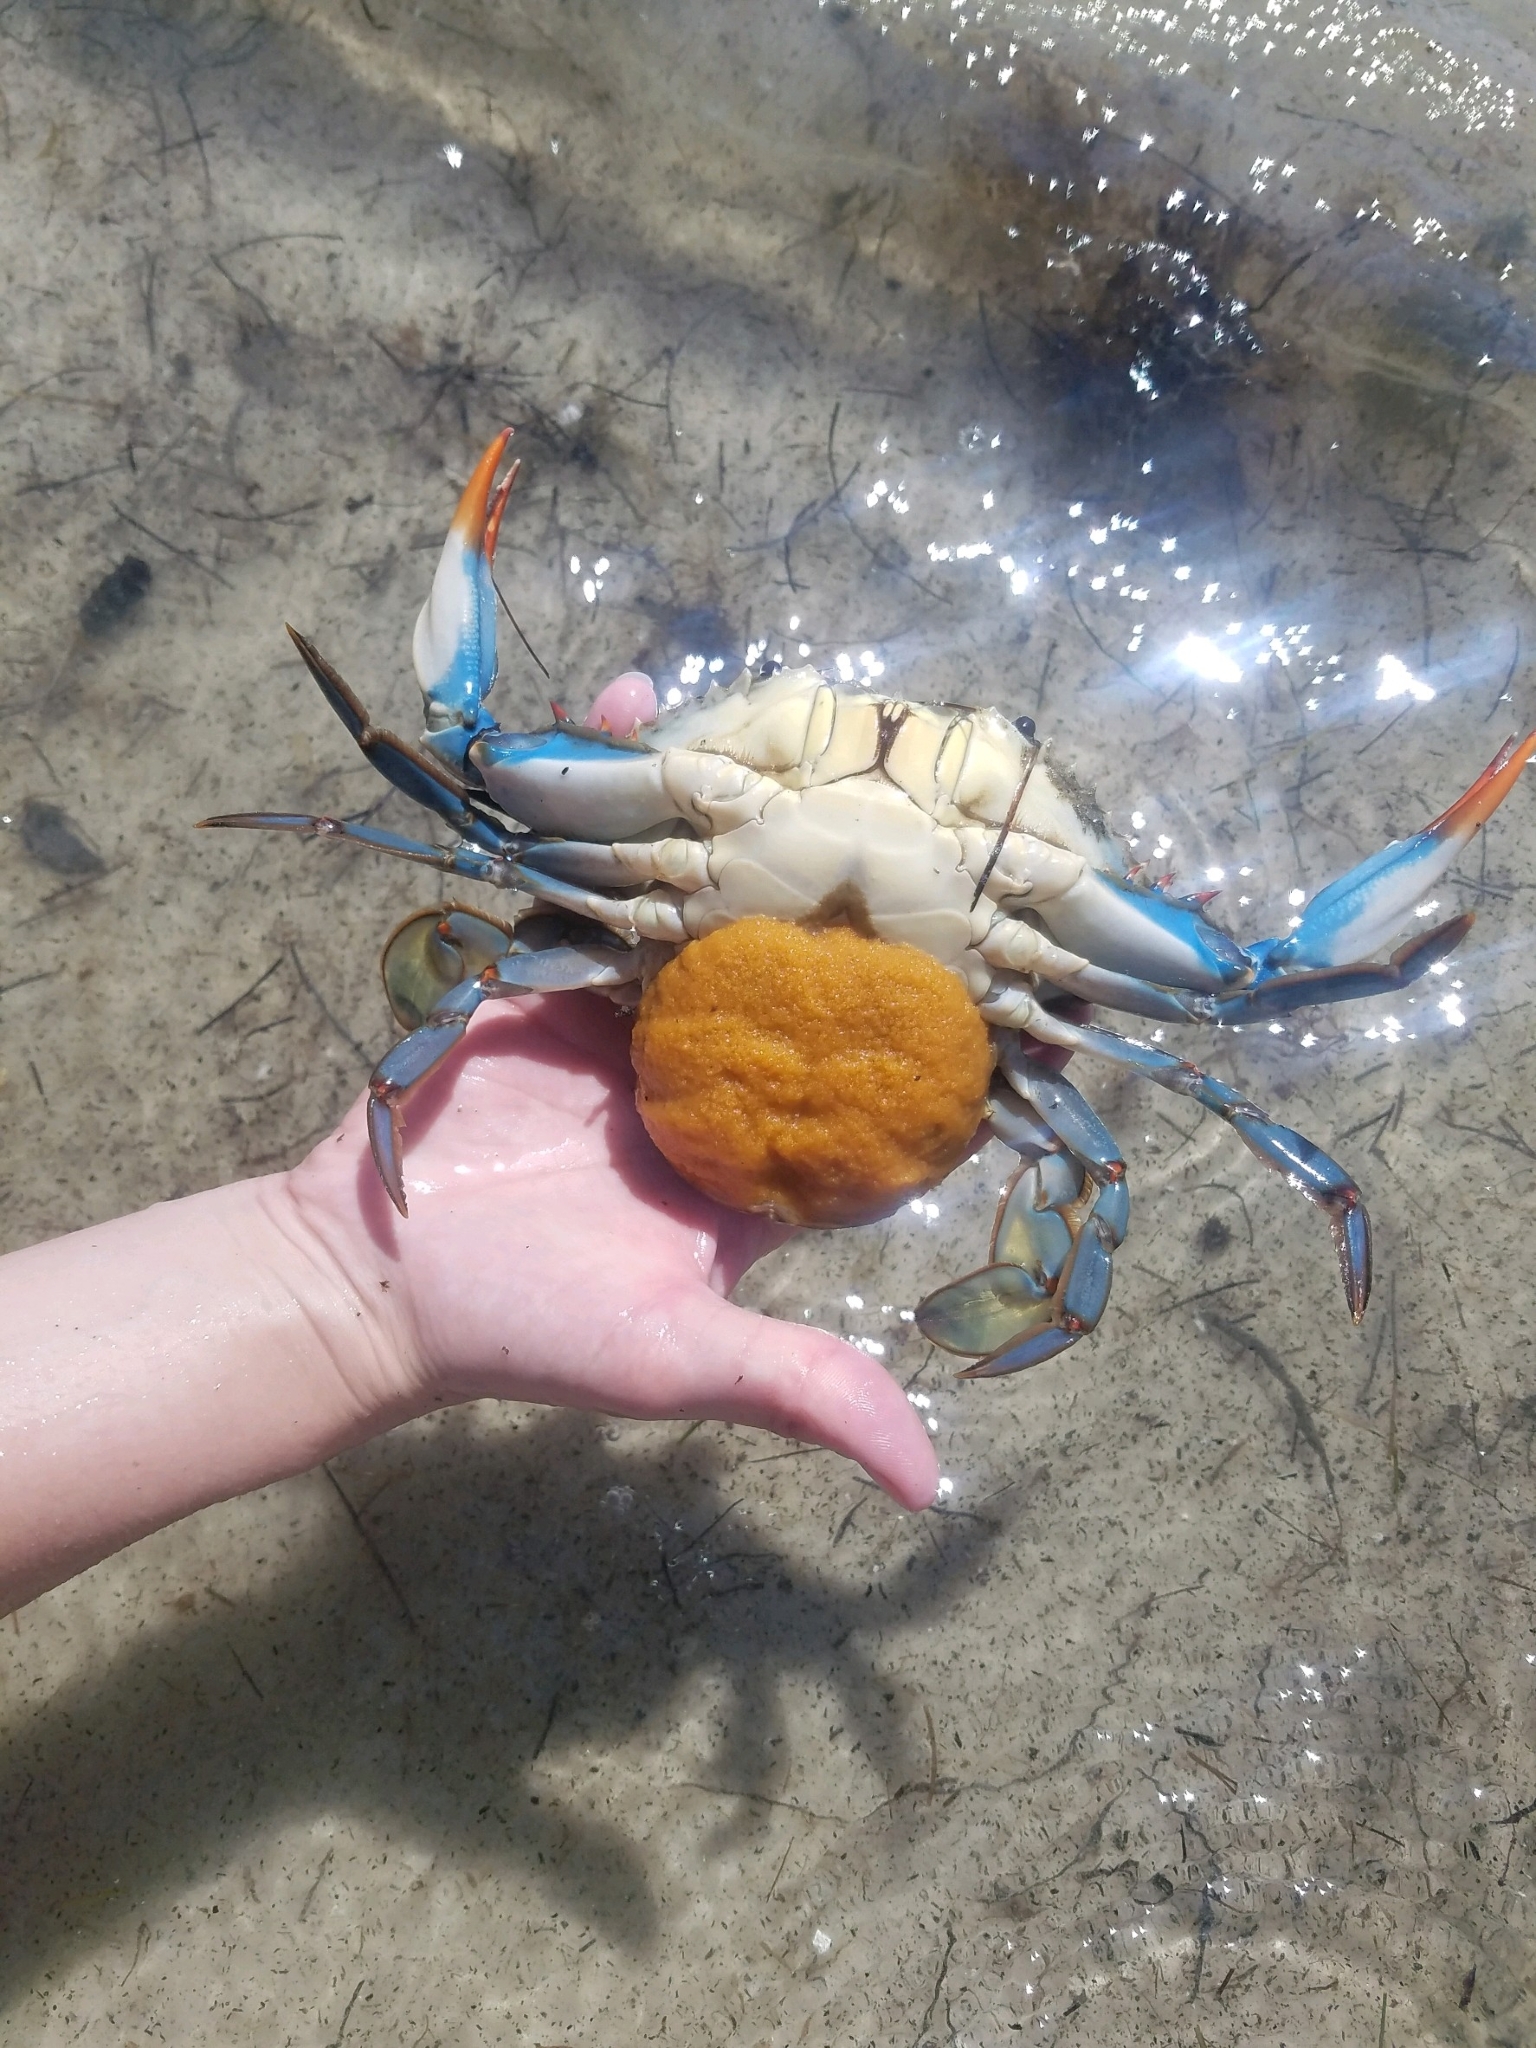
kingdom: Animalia
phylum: Arthropoda
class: Malacostraca
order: Decapoda
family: Portunidae
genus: Callinectes
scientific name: Callinectes sapidus
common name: Blue crab
